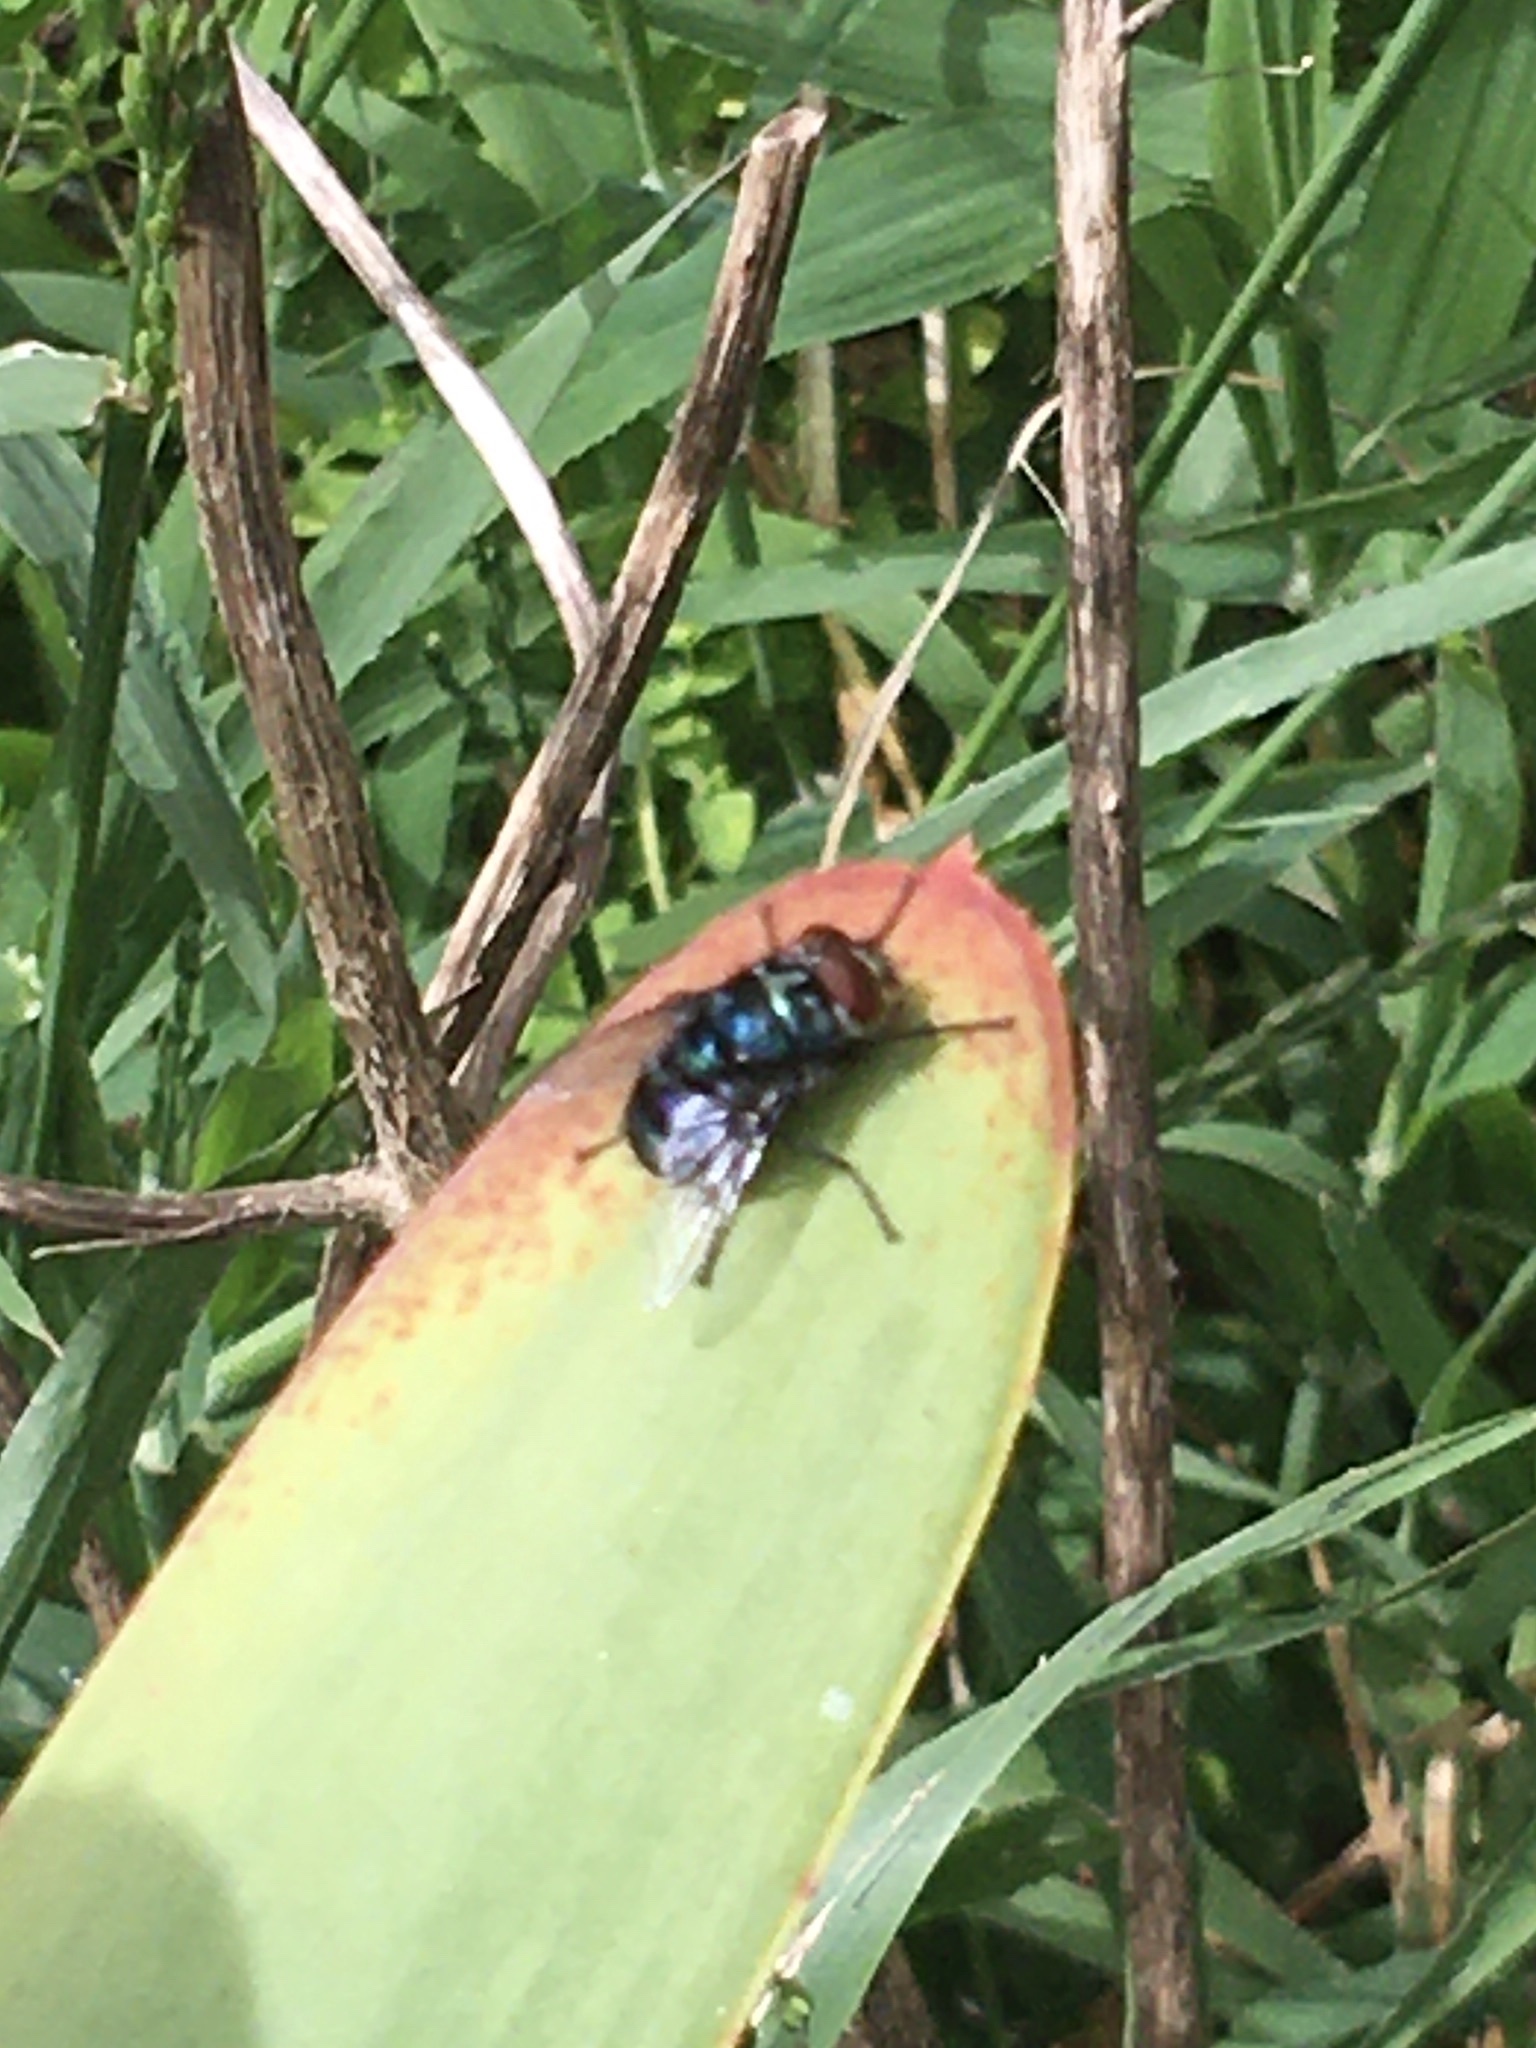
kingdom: Animalia
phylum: Arthropoda
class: Insecta
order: Diptera
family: Calliphoridae
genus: Chrysomya
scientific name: Chrysomya chloropyga
